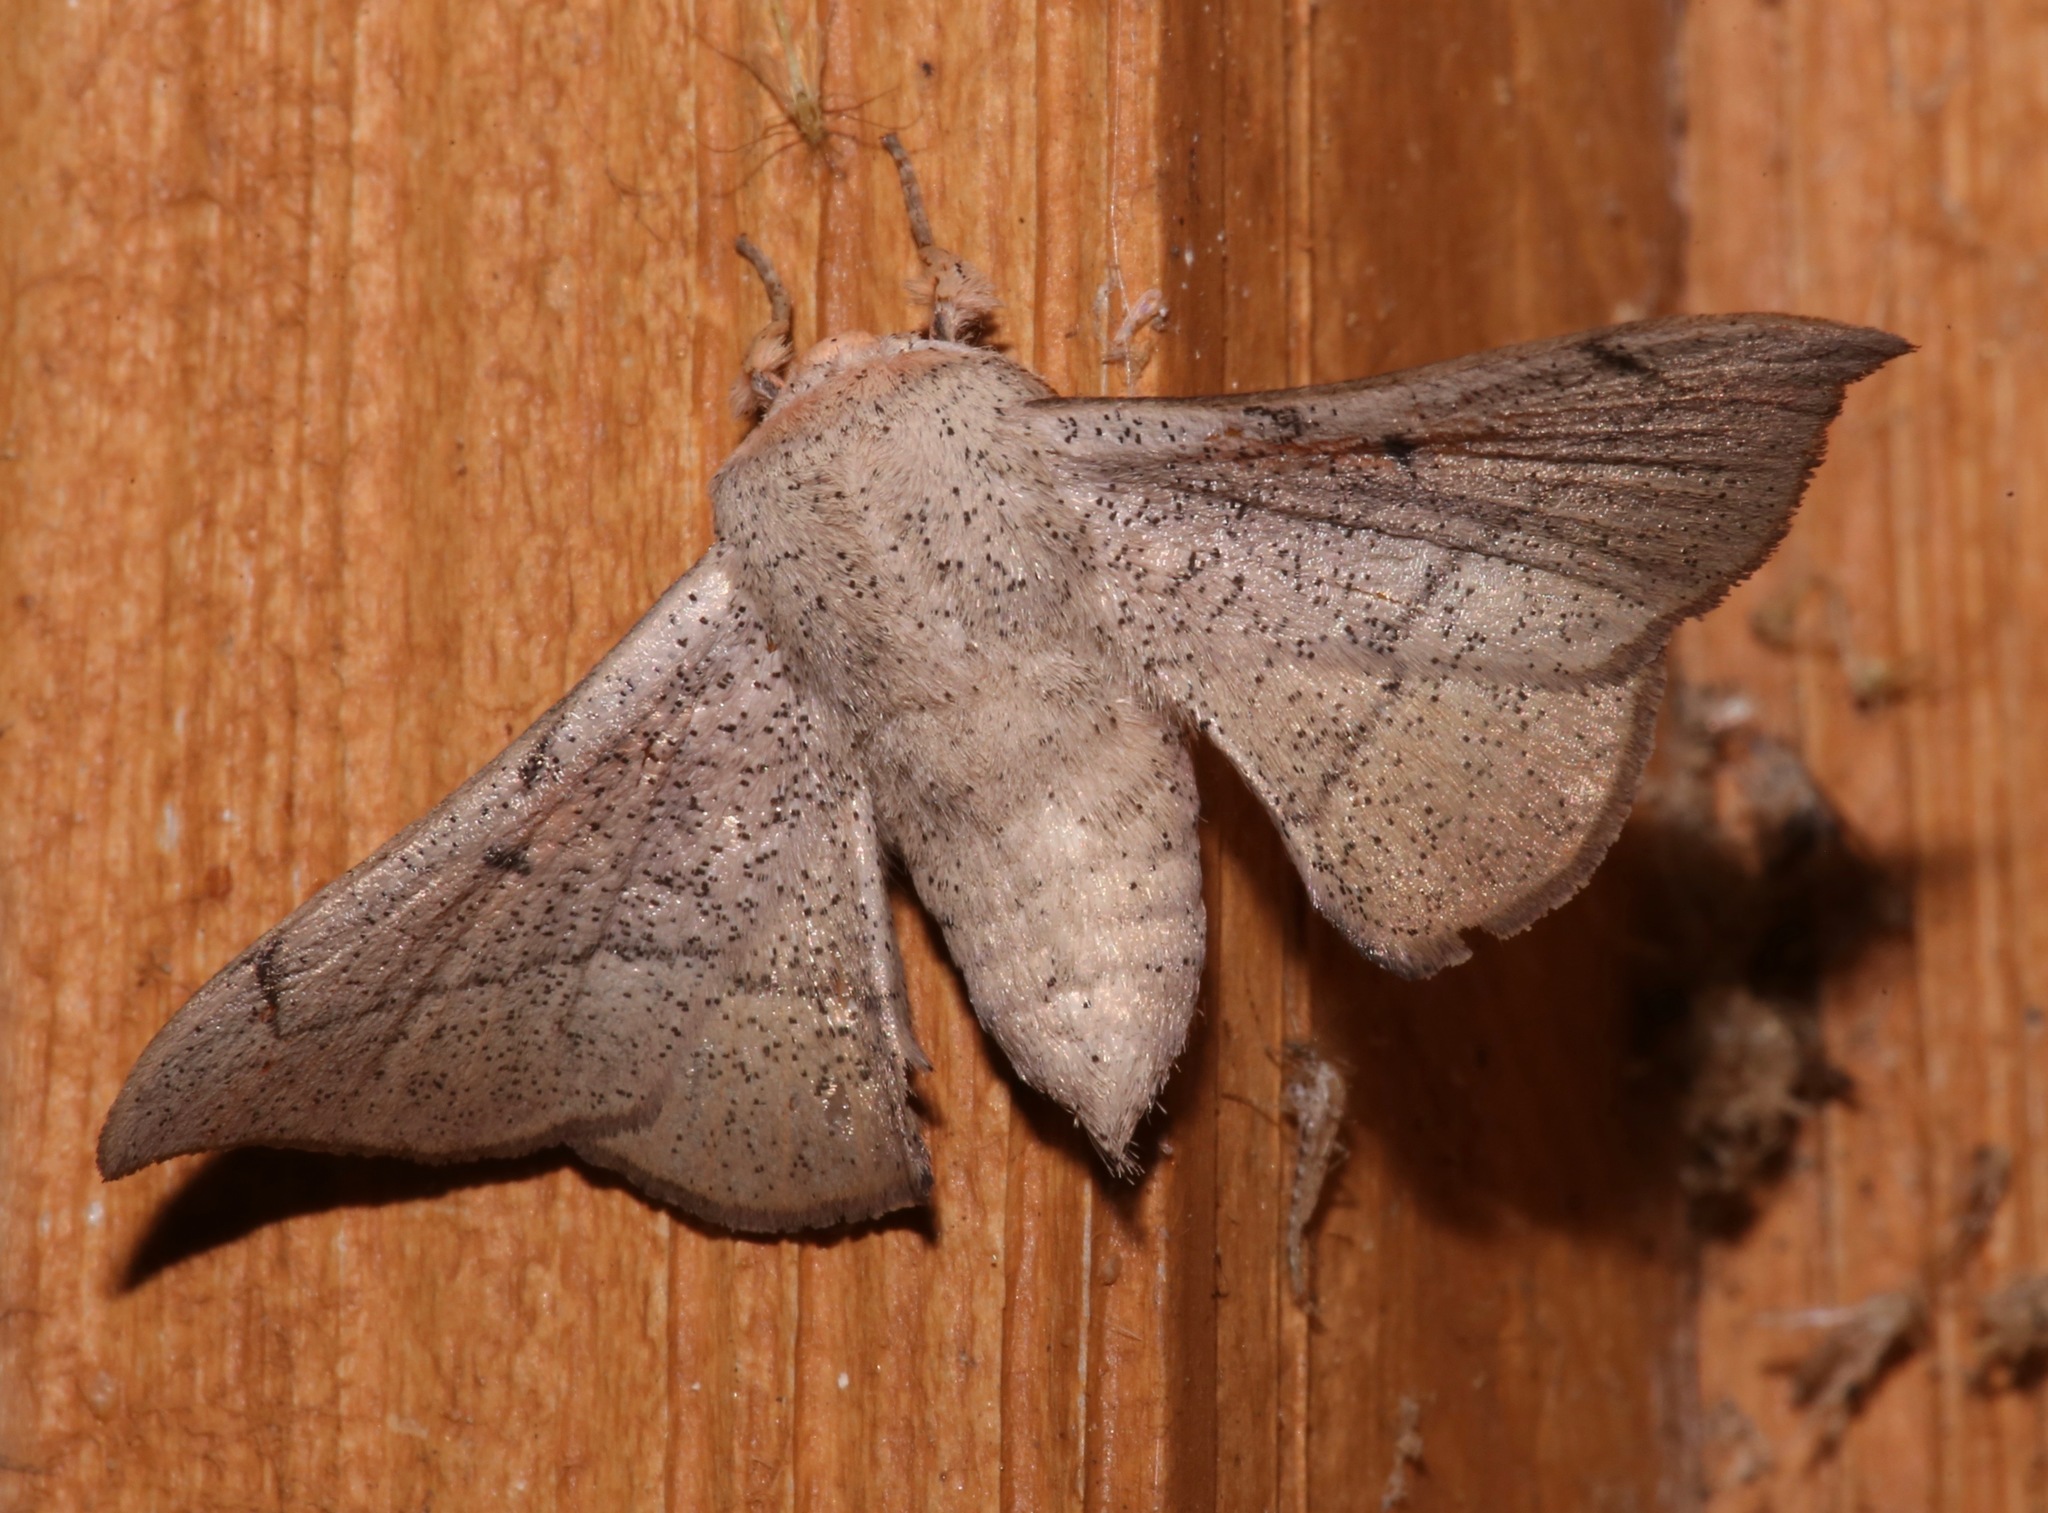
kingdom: Animalia
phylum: Arthropoda
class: Insecta
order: Lepidoptera
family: Mimallonidae
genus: Cicinnus
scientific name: Cicinnus melsheimeri
